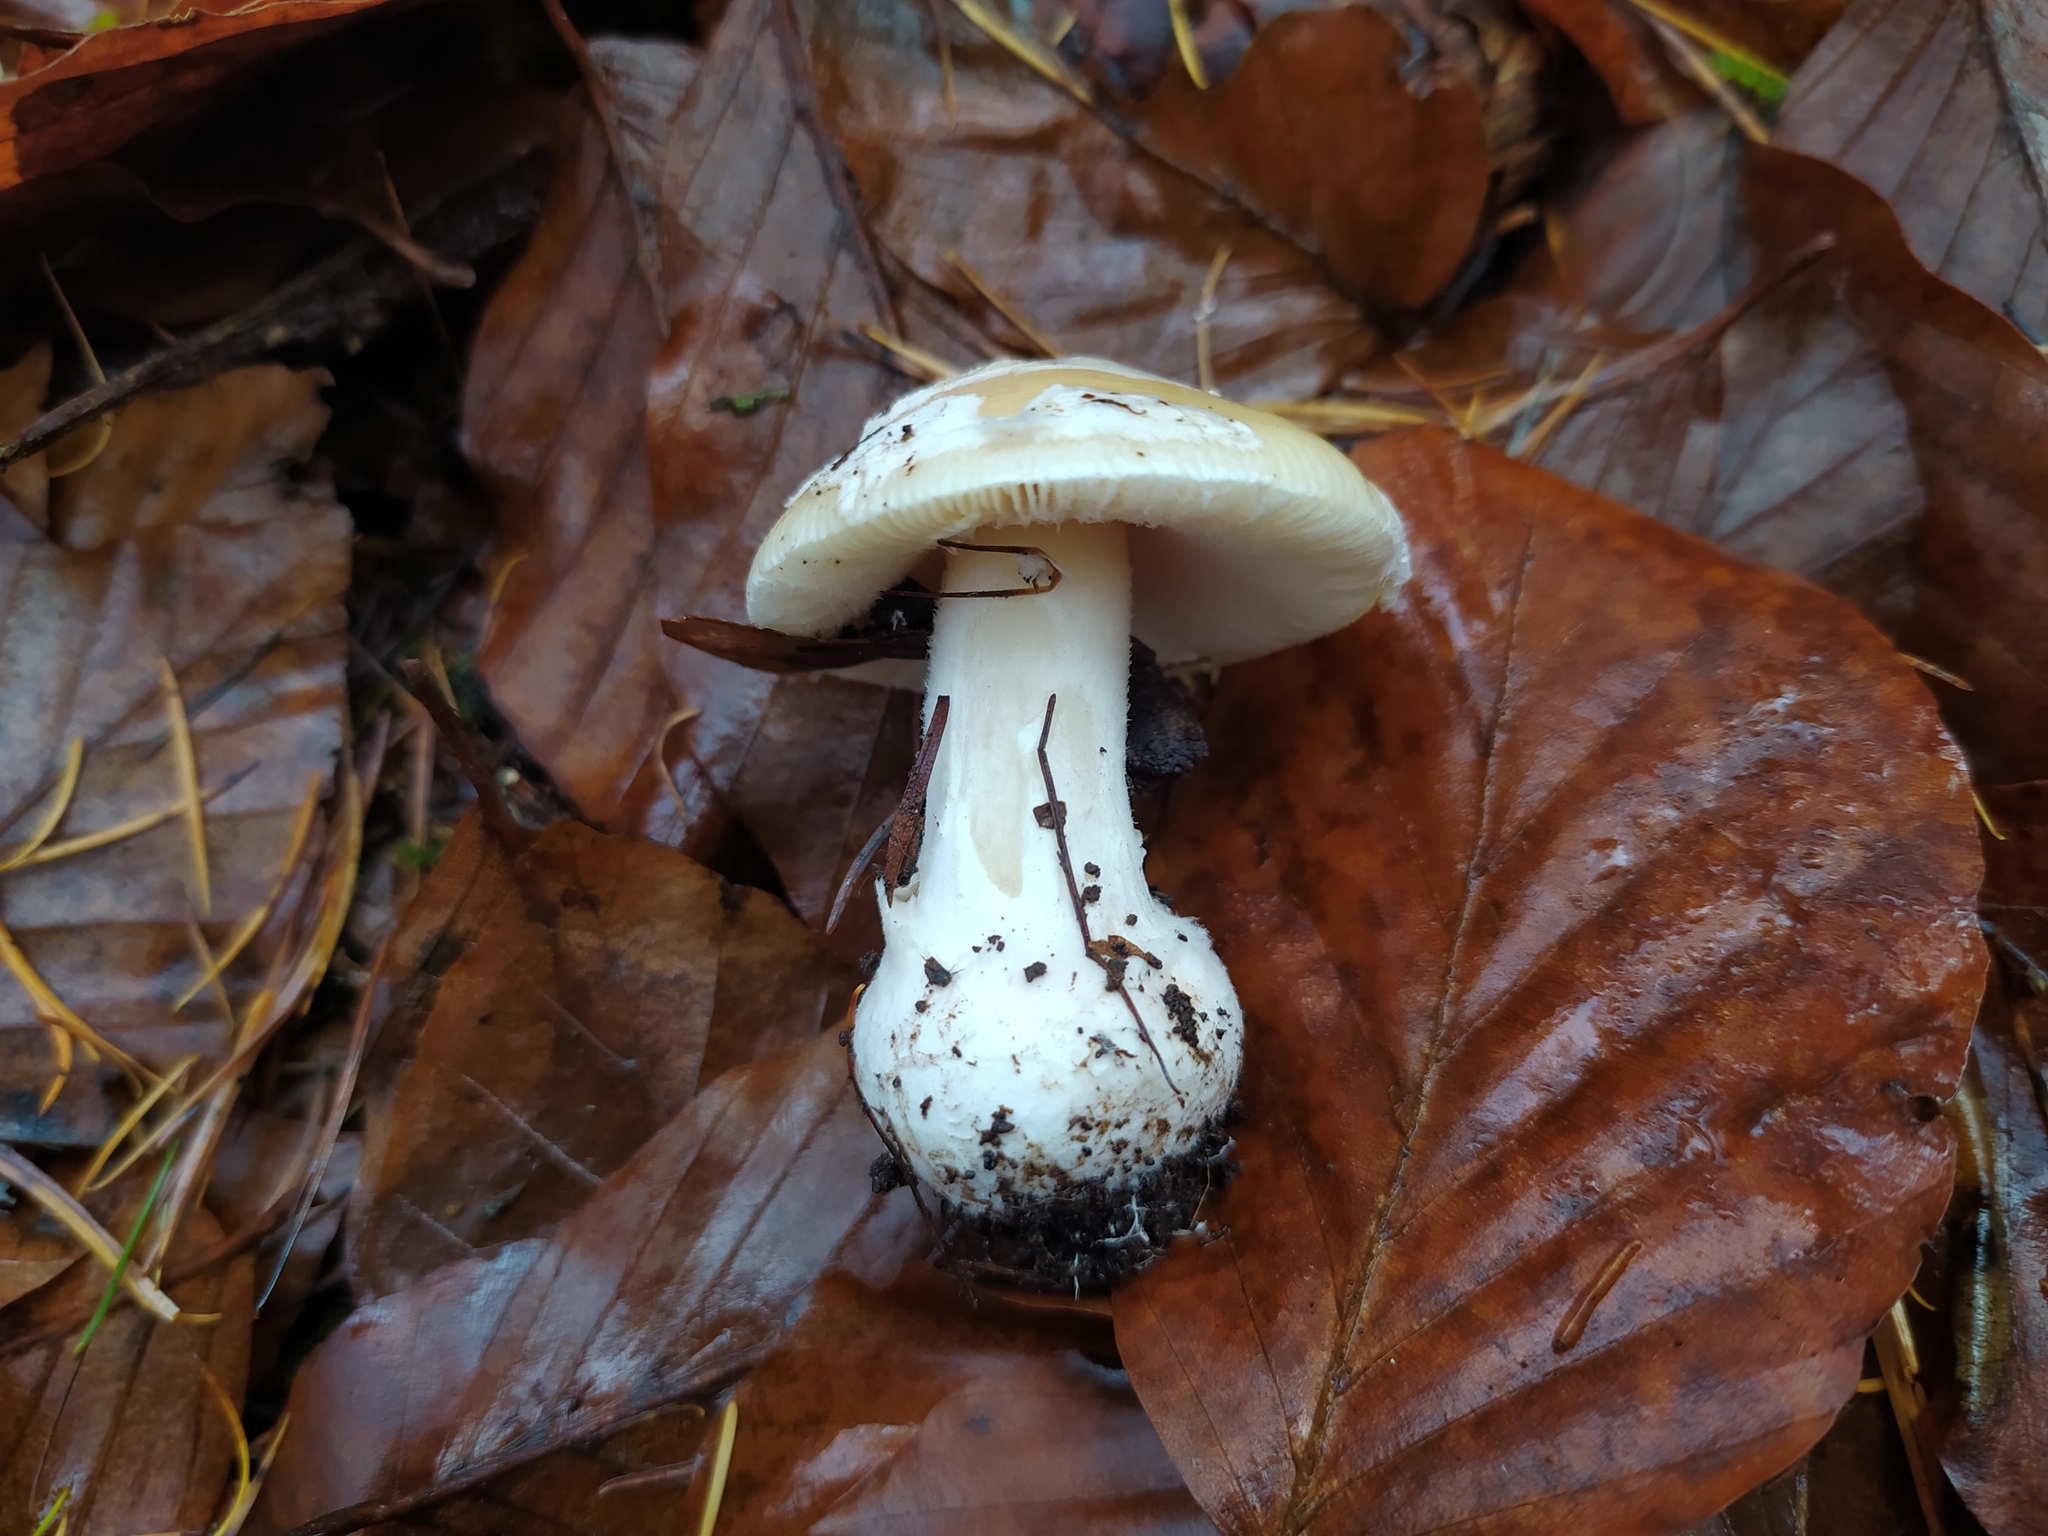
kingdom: Fungi
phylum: Basidiomycota
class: Agaricomycetes
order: Agaricales
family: Amanitaceae
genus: Amanita
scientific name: Amanita gemmata
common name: Jewelled amanita
